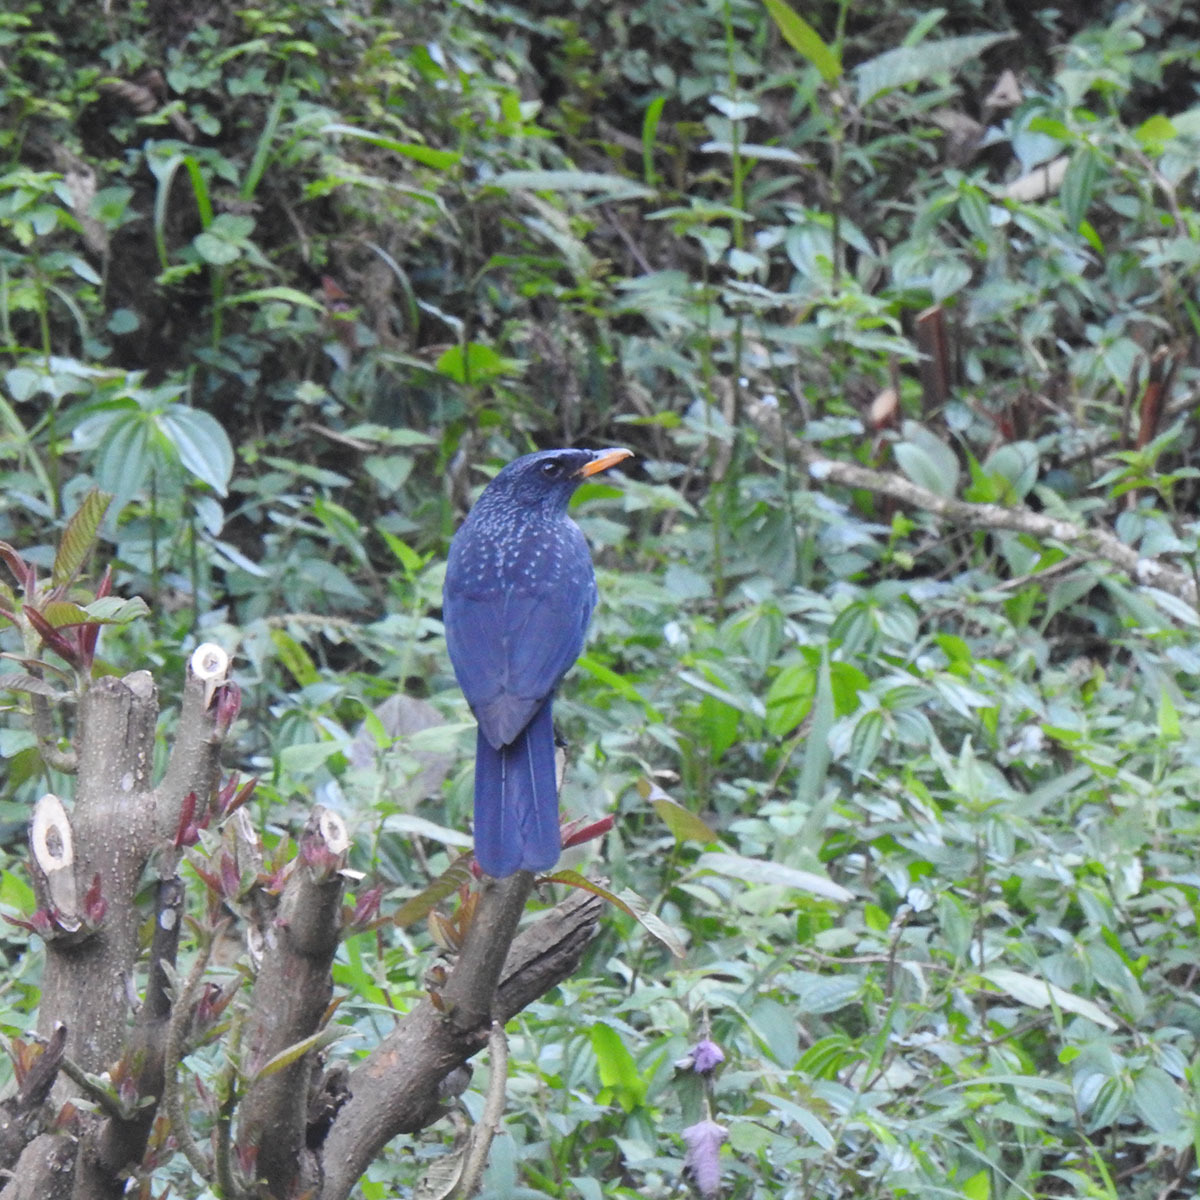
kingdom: Animalia
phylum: Chordata
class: Aves
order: Passeriformes
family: Muscicapidae
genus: Myophonus
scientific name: Myophonus caeruleus
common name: Blue whistling-thrush
